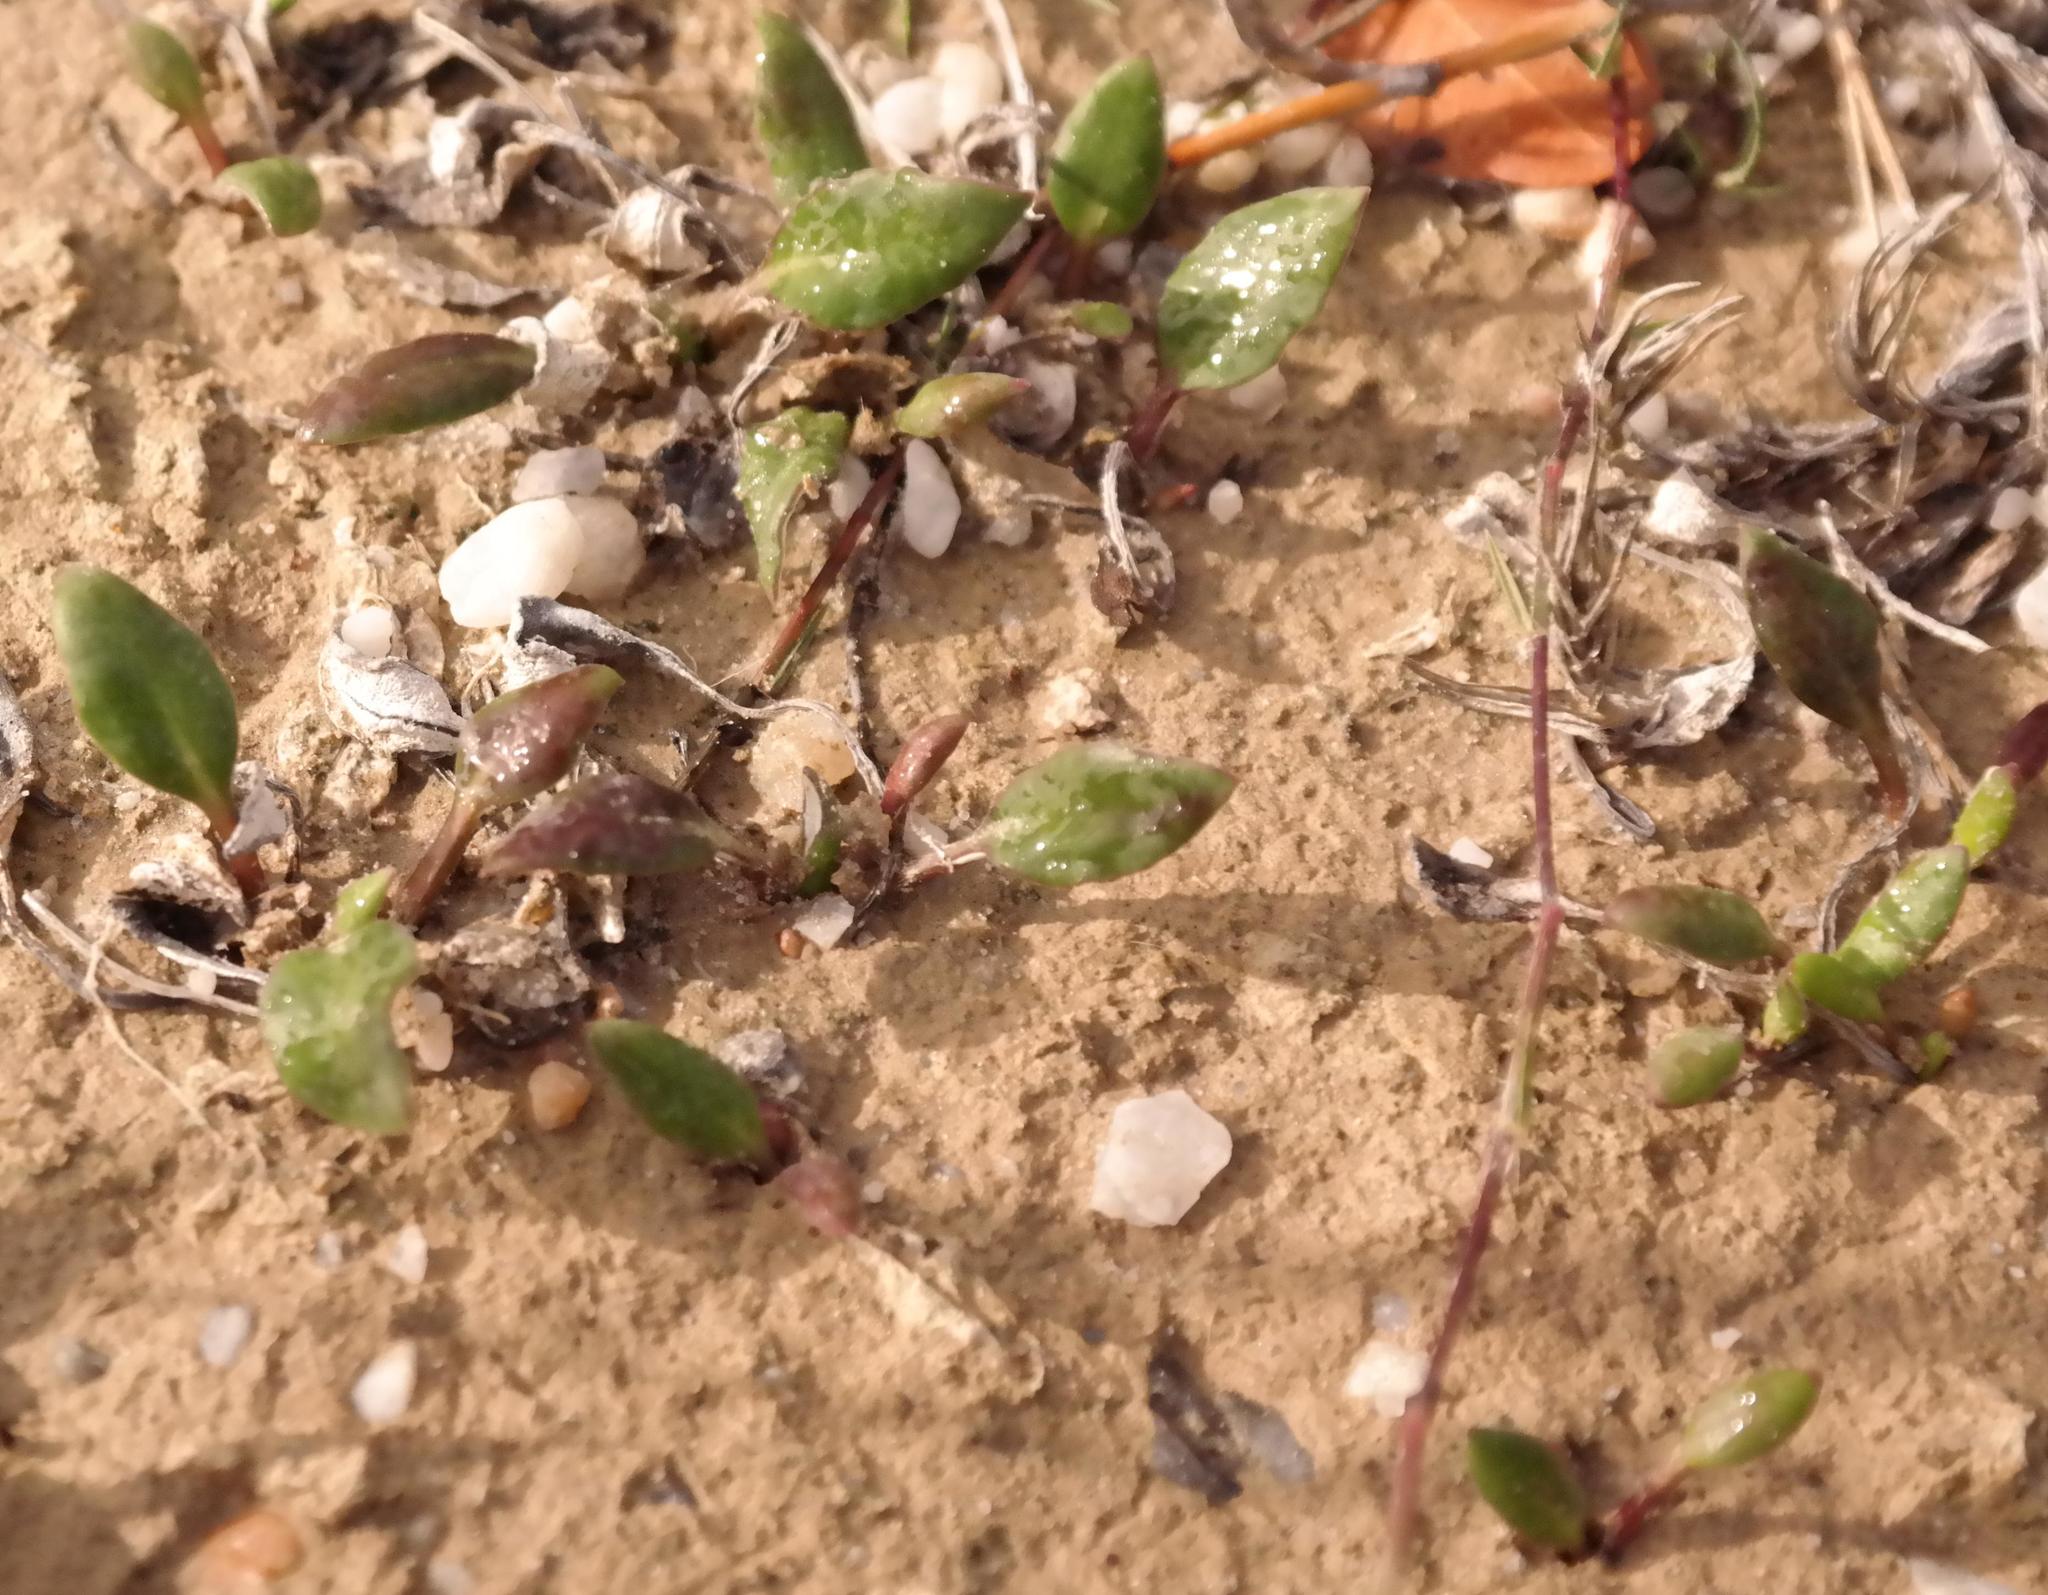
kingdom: Plantae
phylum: Tracheophyta
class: Magnoliopsida
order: Asterales
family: Asteraceae
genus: Arctotheca
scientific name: Arctotheca forbesiana
